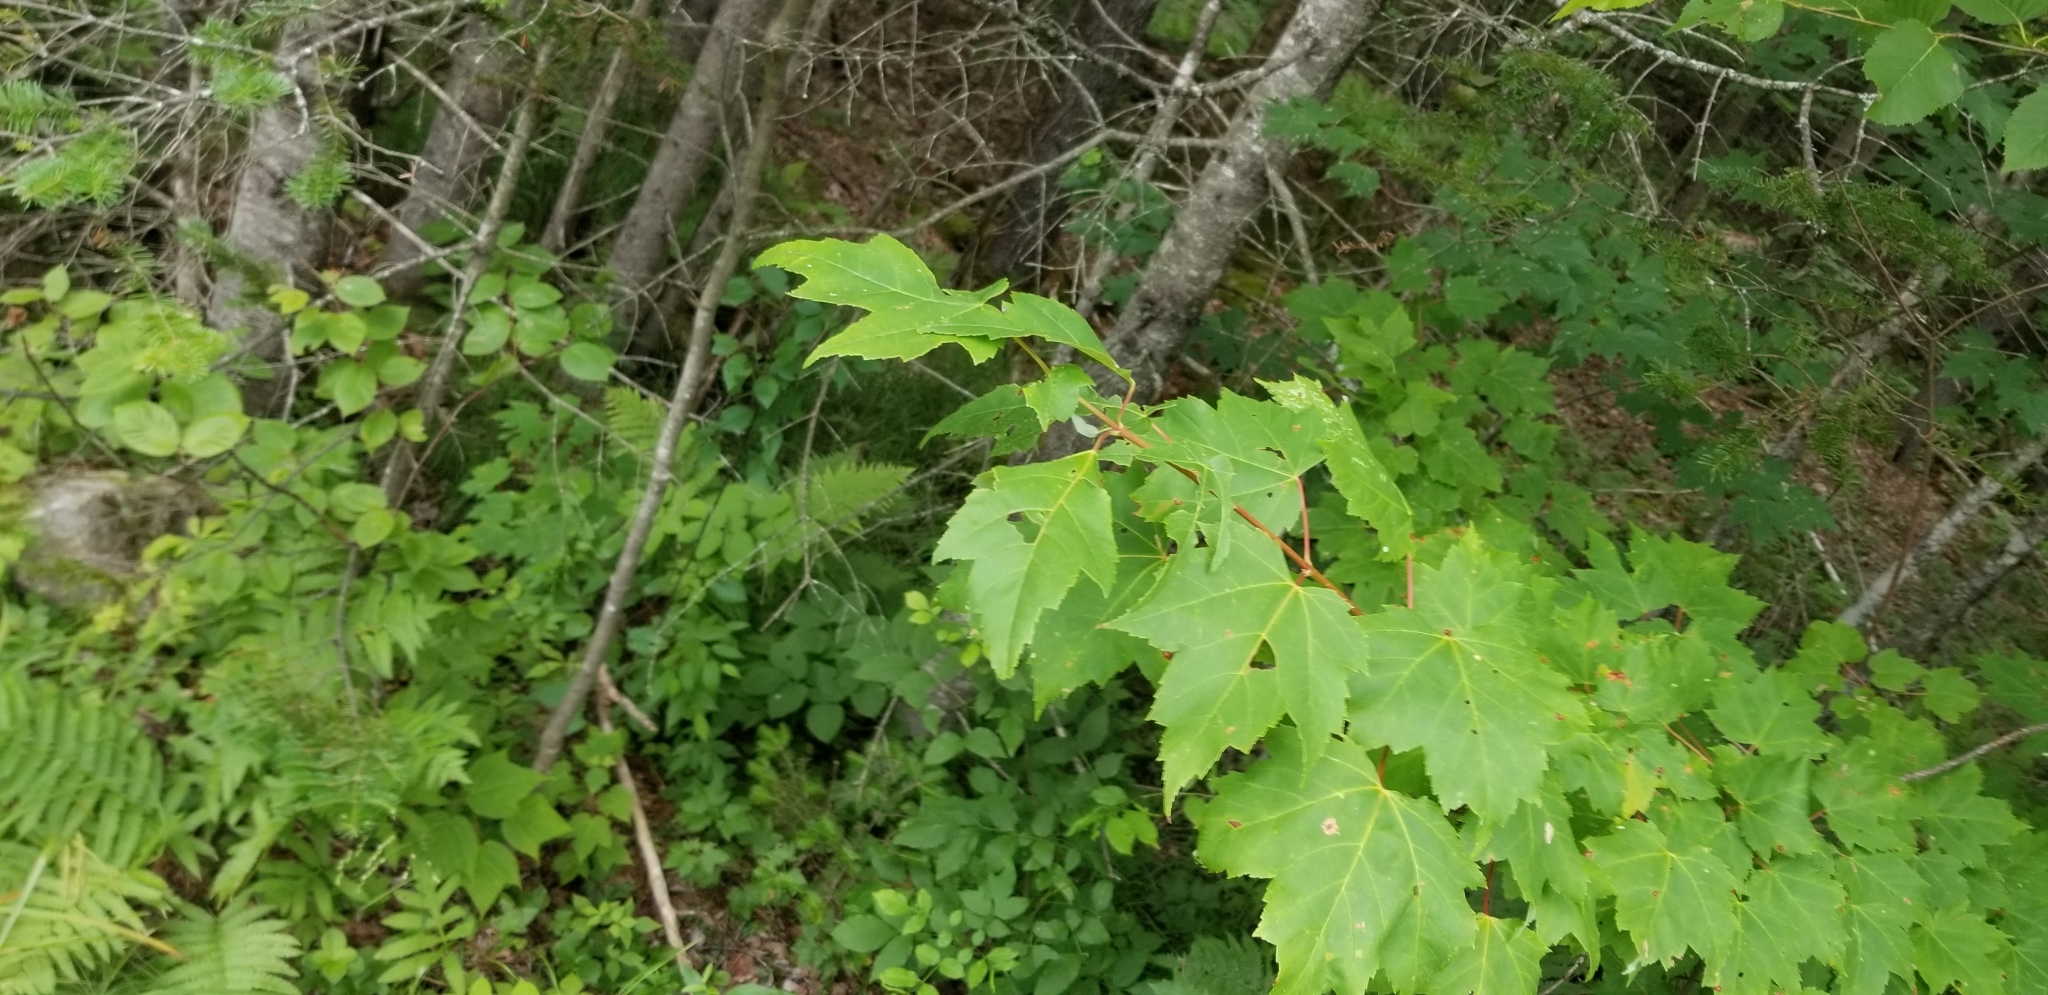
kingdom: Plantae
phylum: Tracheophyta
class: Magnoliopsida
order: Sapindales
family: Sapindaceae
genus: Acer
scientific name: Acer rubrum
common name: Red maple
